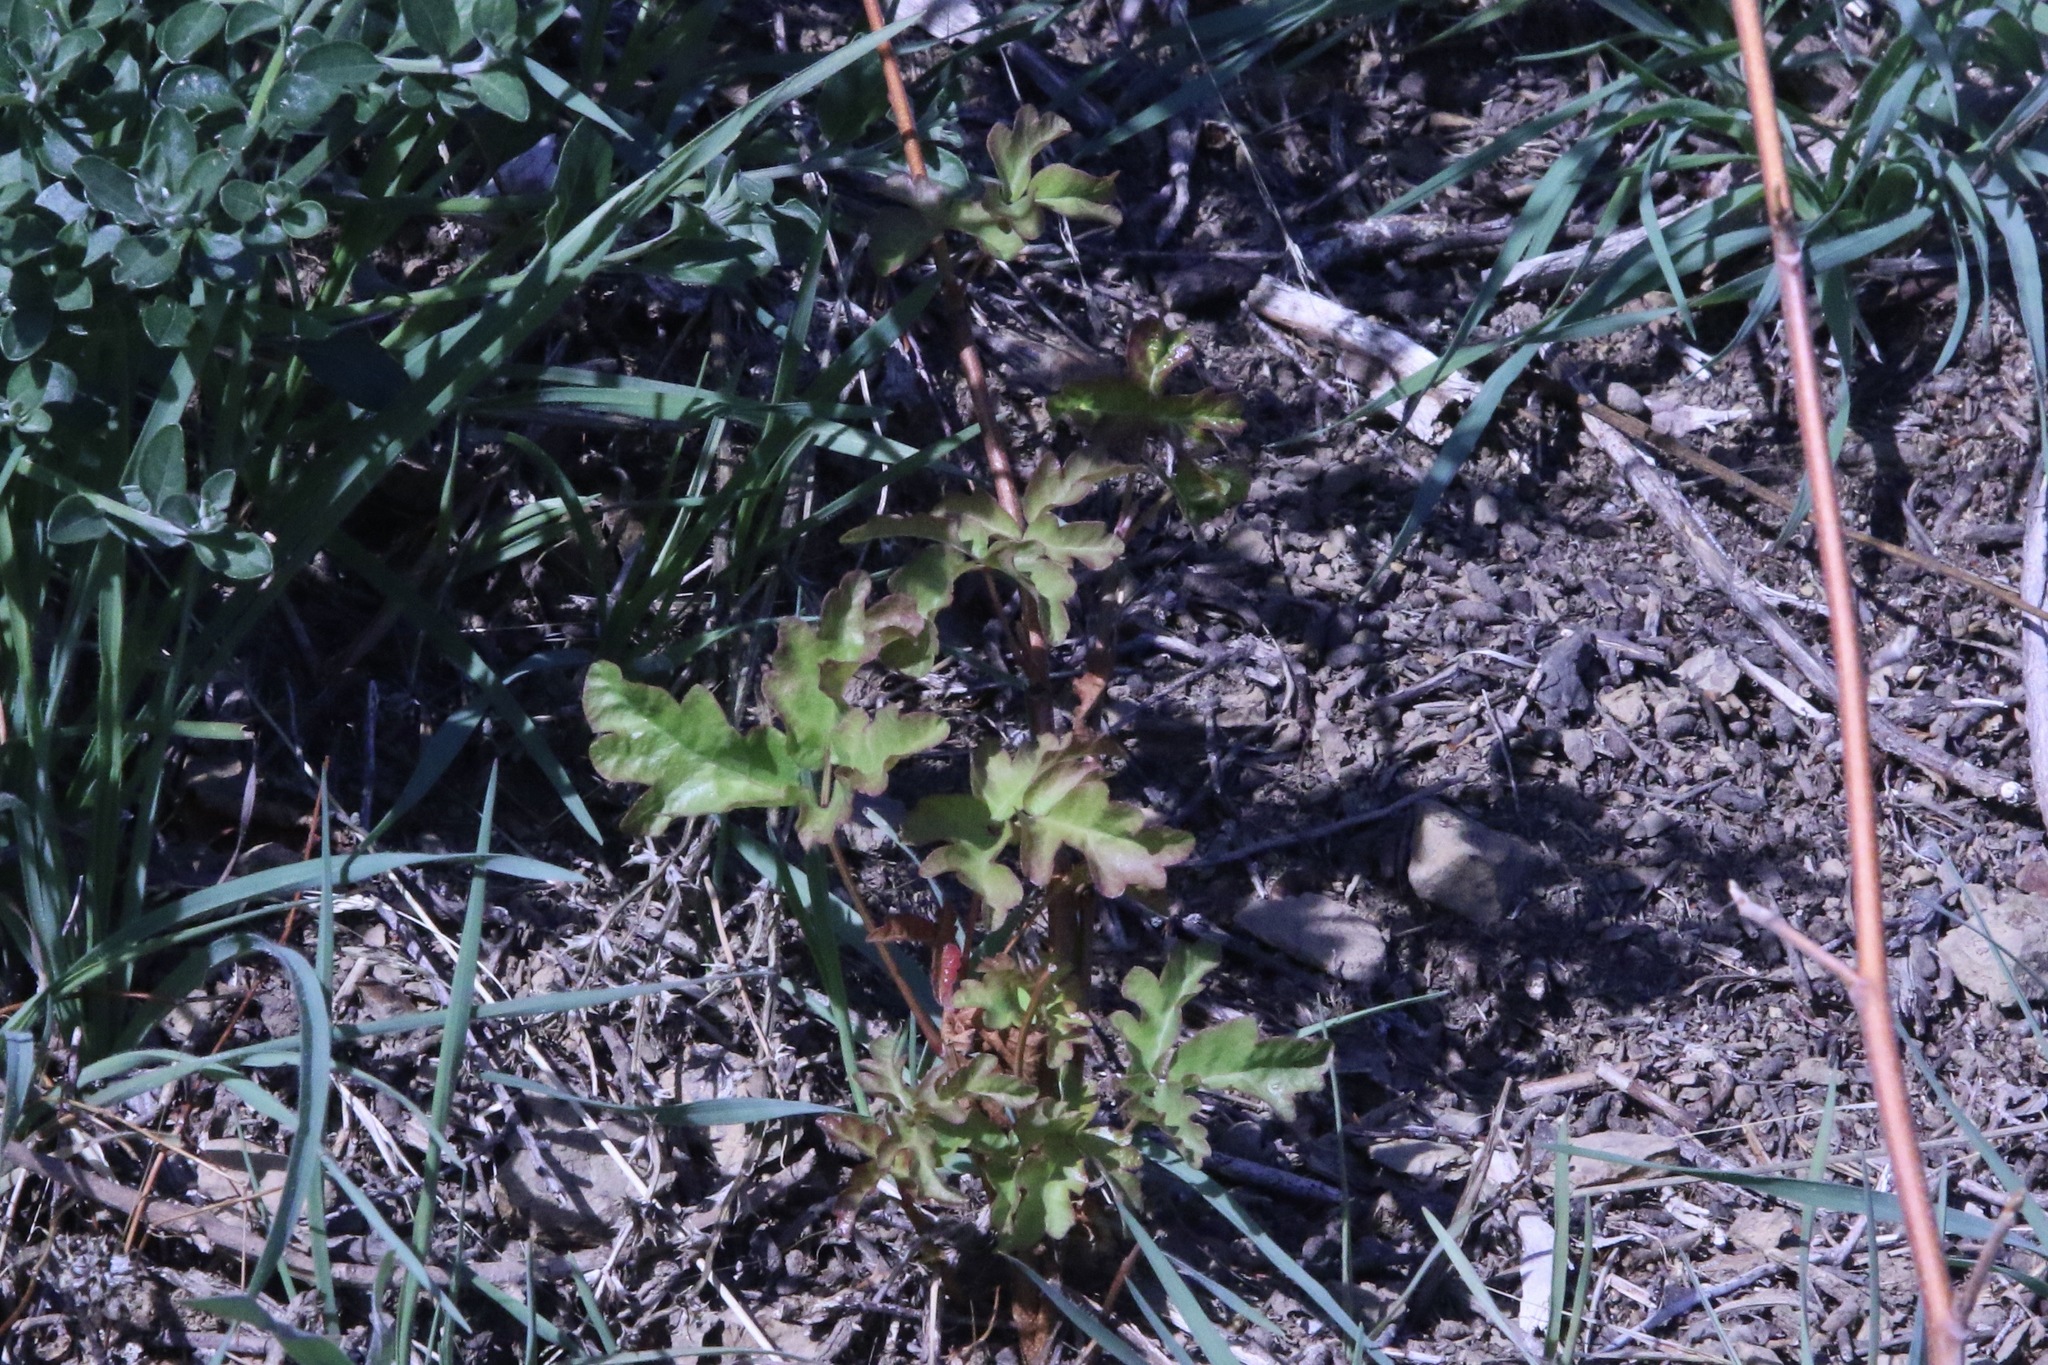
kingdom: Plantae
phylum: Tracheophyta
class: Magnoliopsida
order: Sapindales
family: Anacardiaceae
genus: Toxicodendron
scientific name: Toxicodendron diversilobum
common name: Pacific poison-oak
